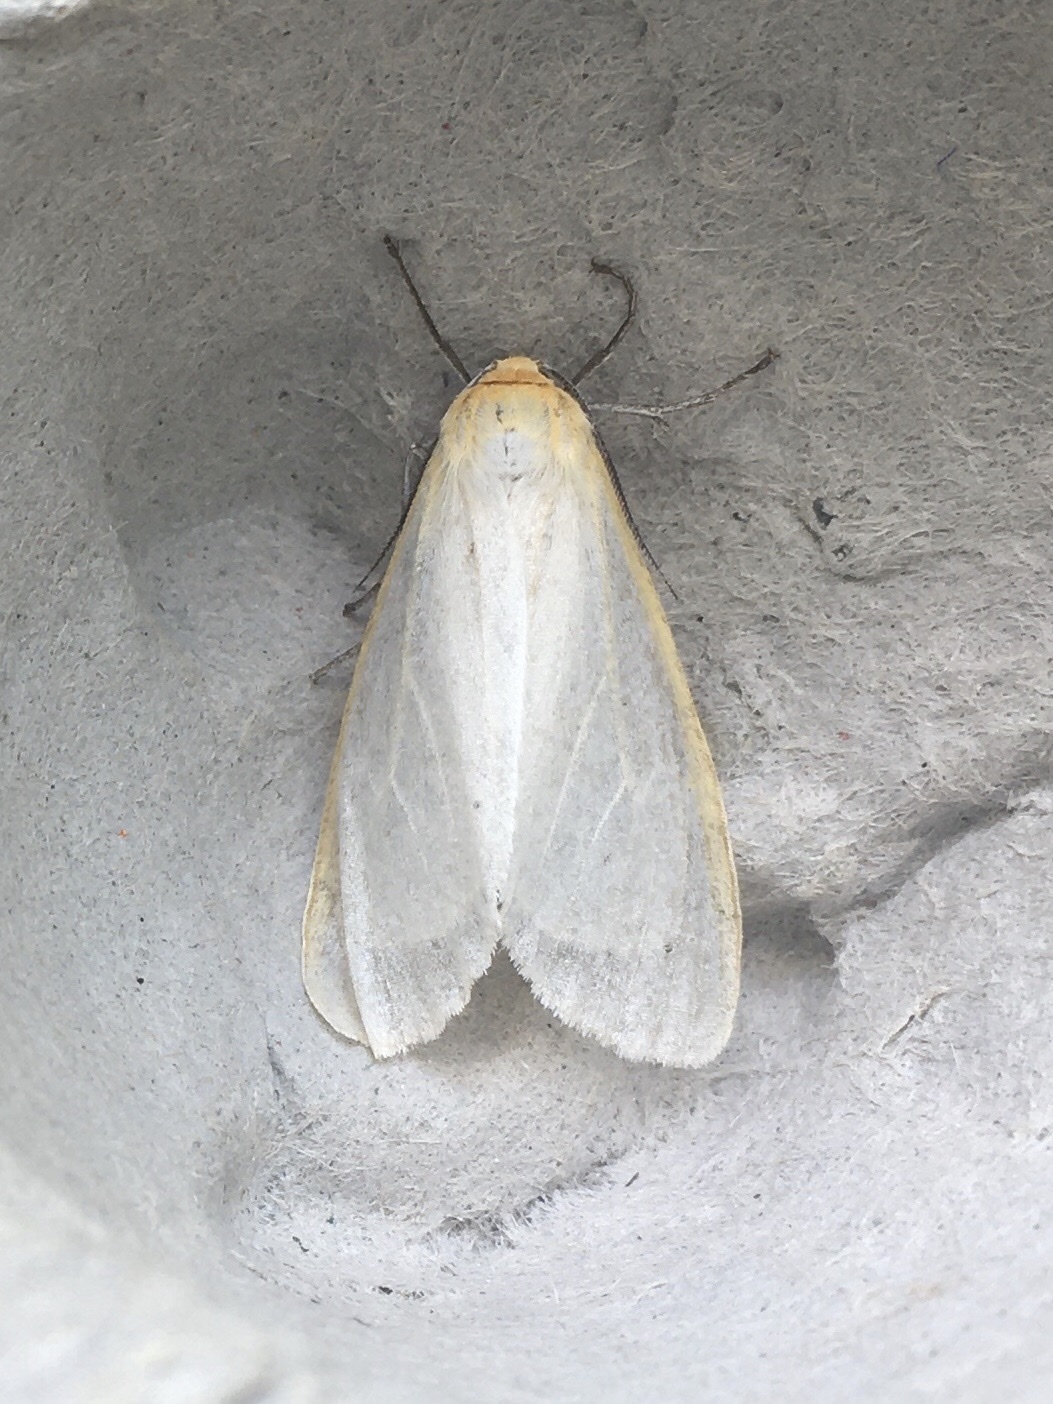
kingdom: Animalia
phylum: Arthropoda
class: Insecta
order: Lepidoptera
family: Erebidae
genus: Cycnia
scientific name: Cycnia tenera
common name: Delicate cycnia moth
